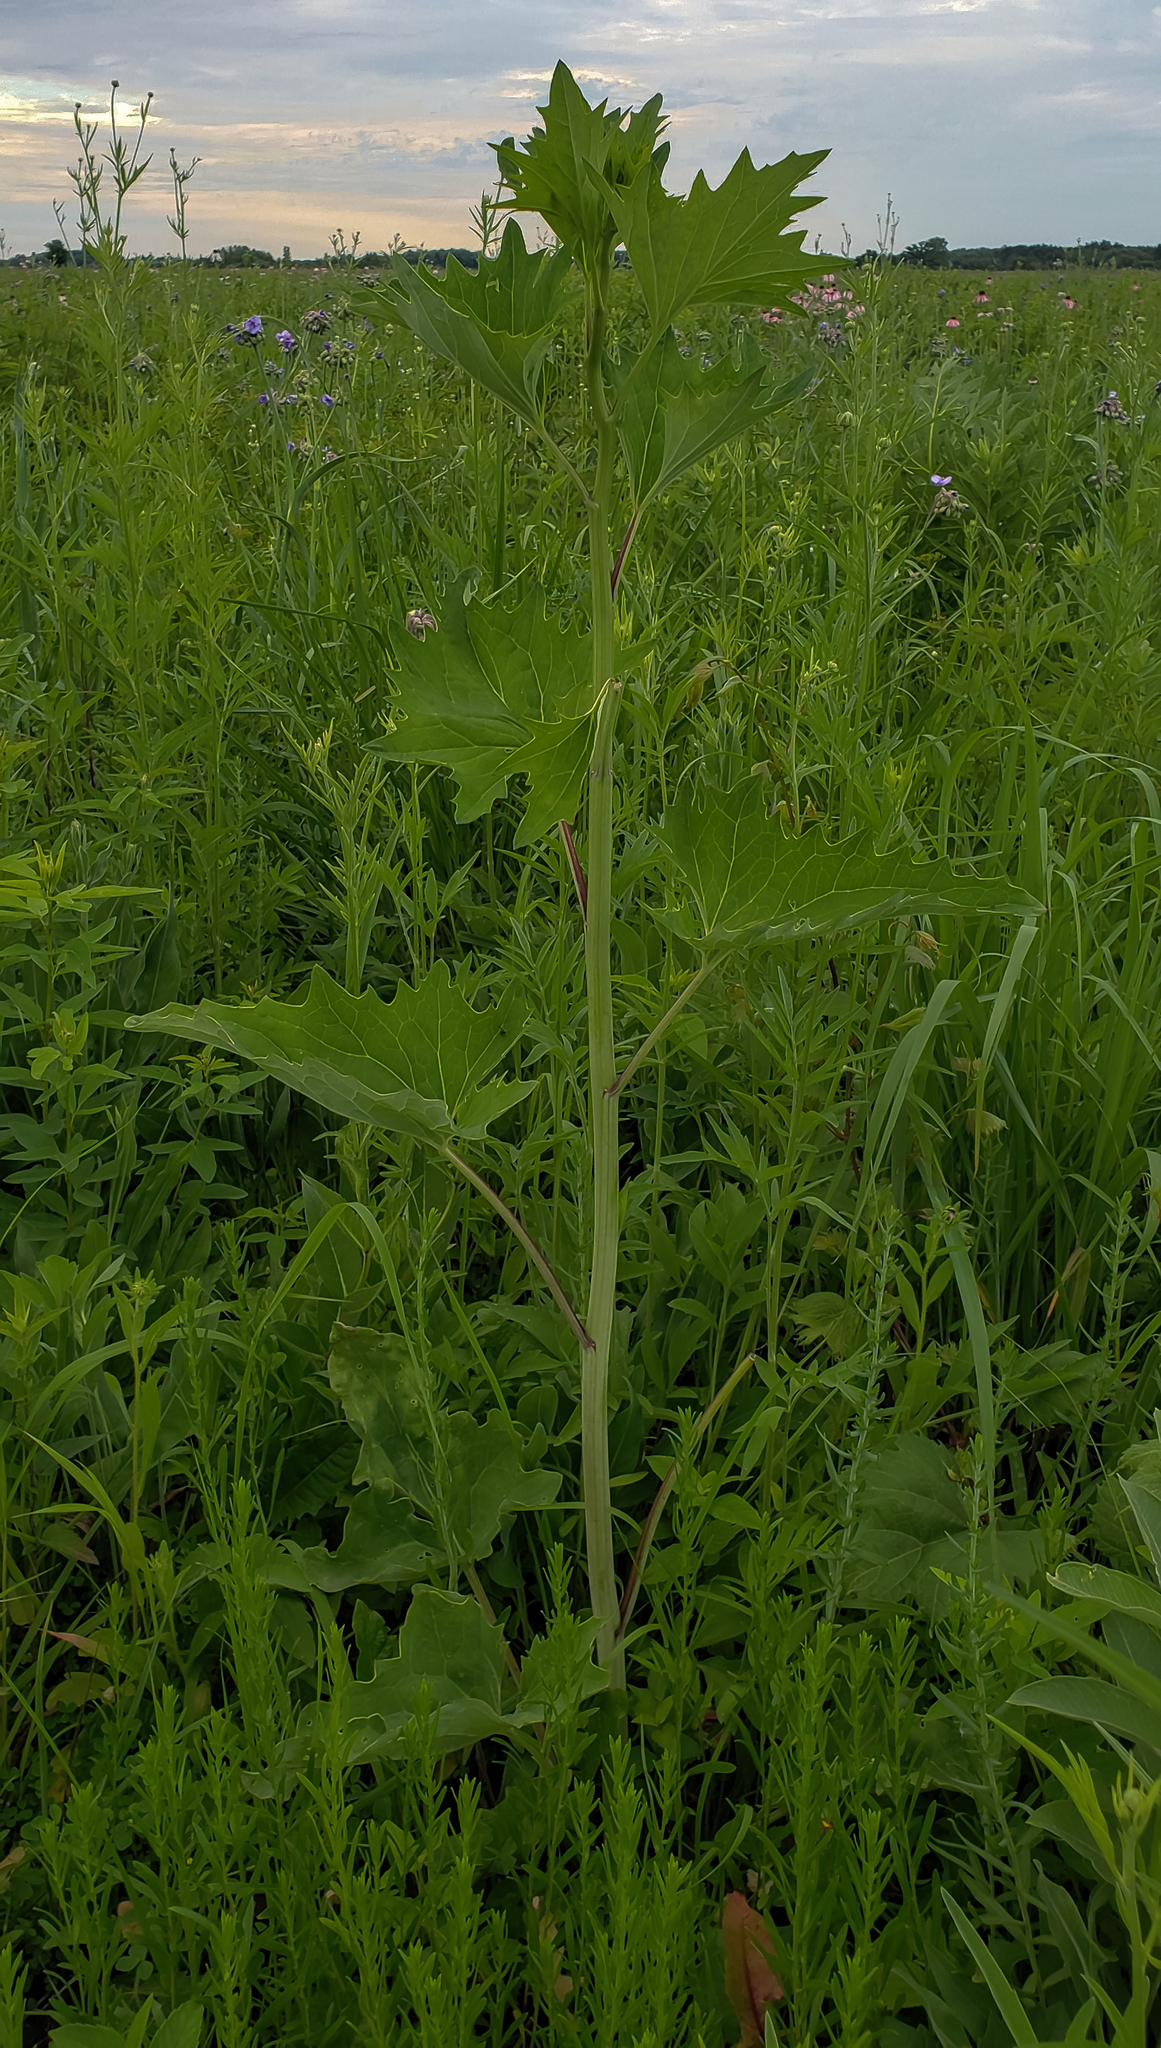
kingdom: Plantae
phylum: Tracheophyta
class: Magnoliopsida
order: Asterales
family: Asteraceae
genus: Arnoglossum
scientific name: Arnoglossum atriplicifolium
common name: Pale indian-plantain
